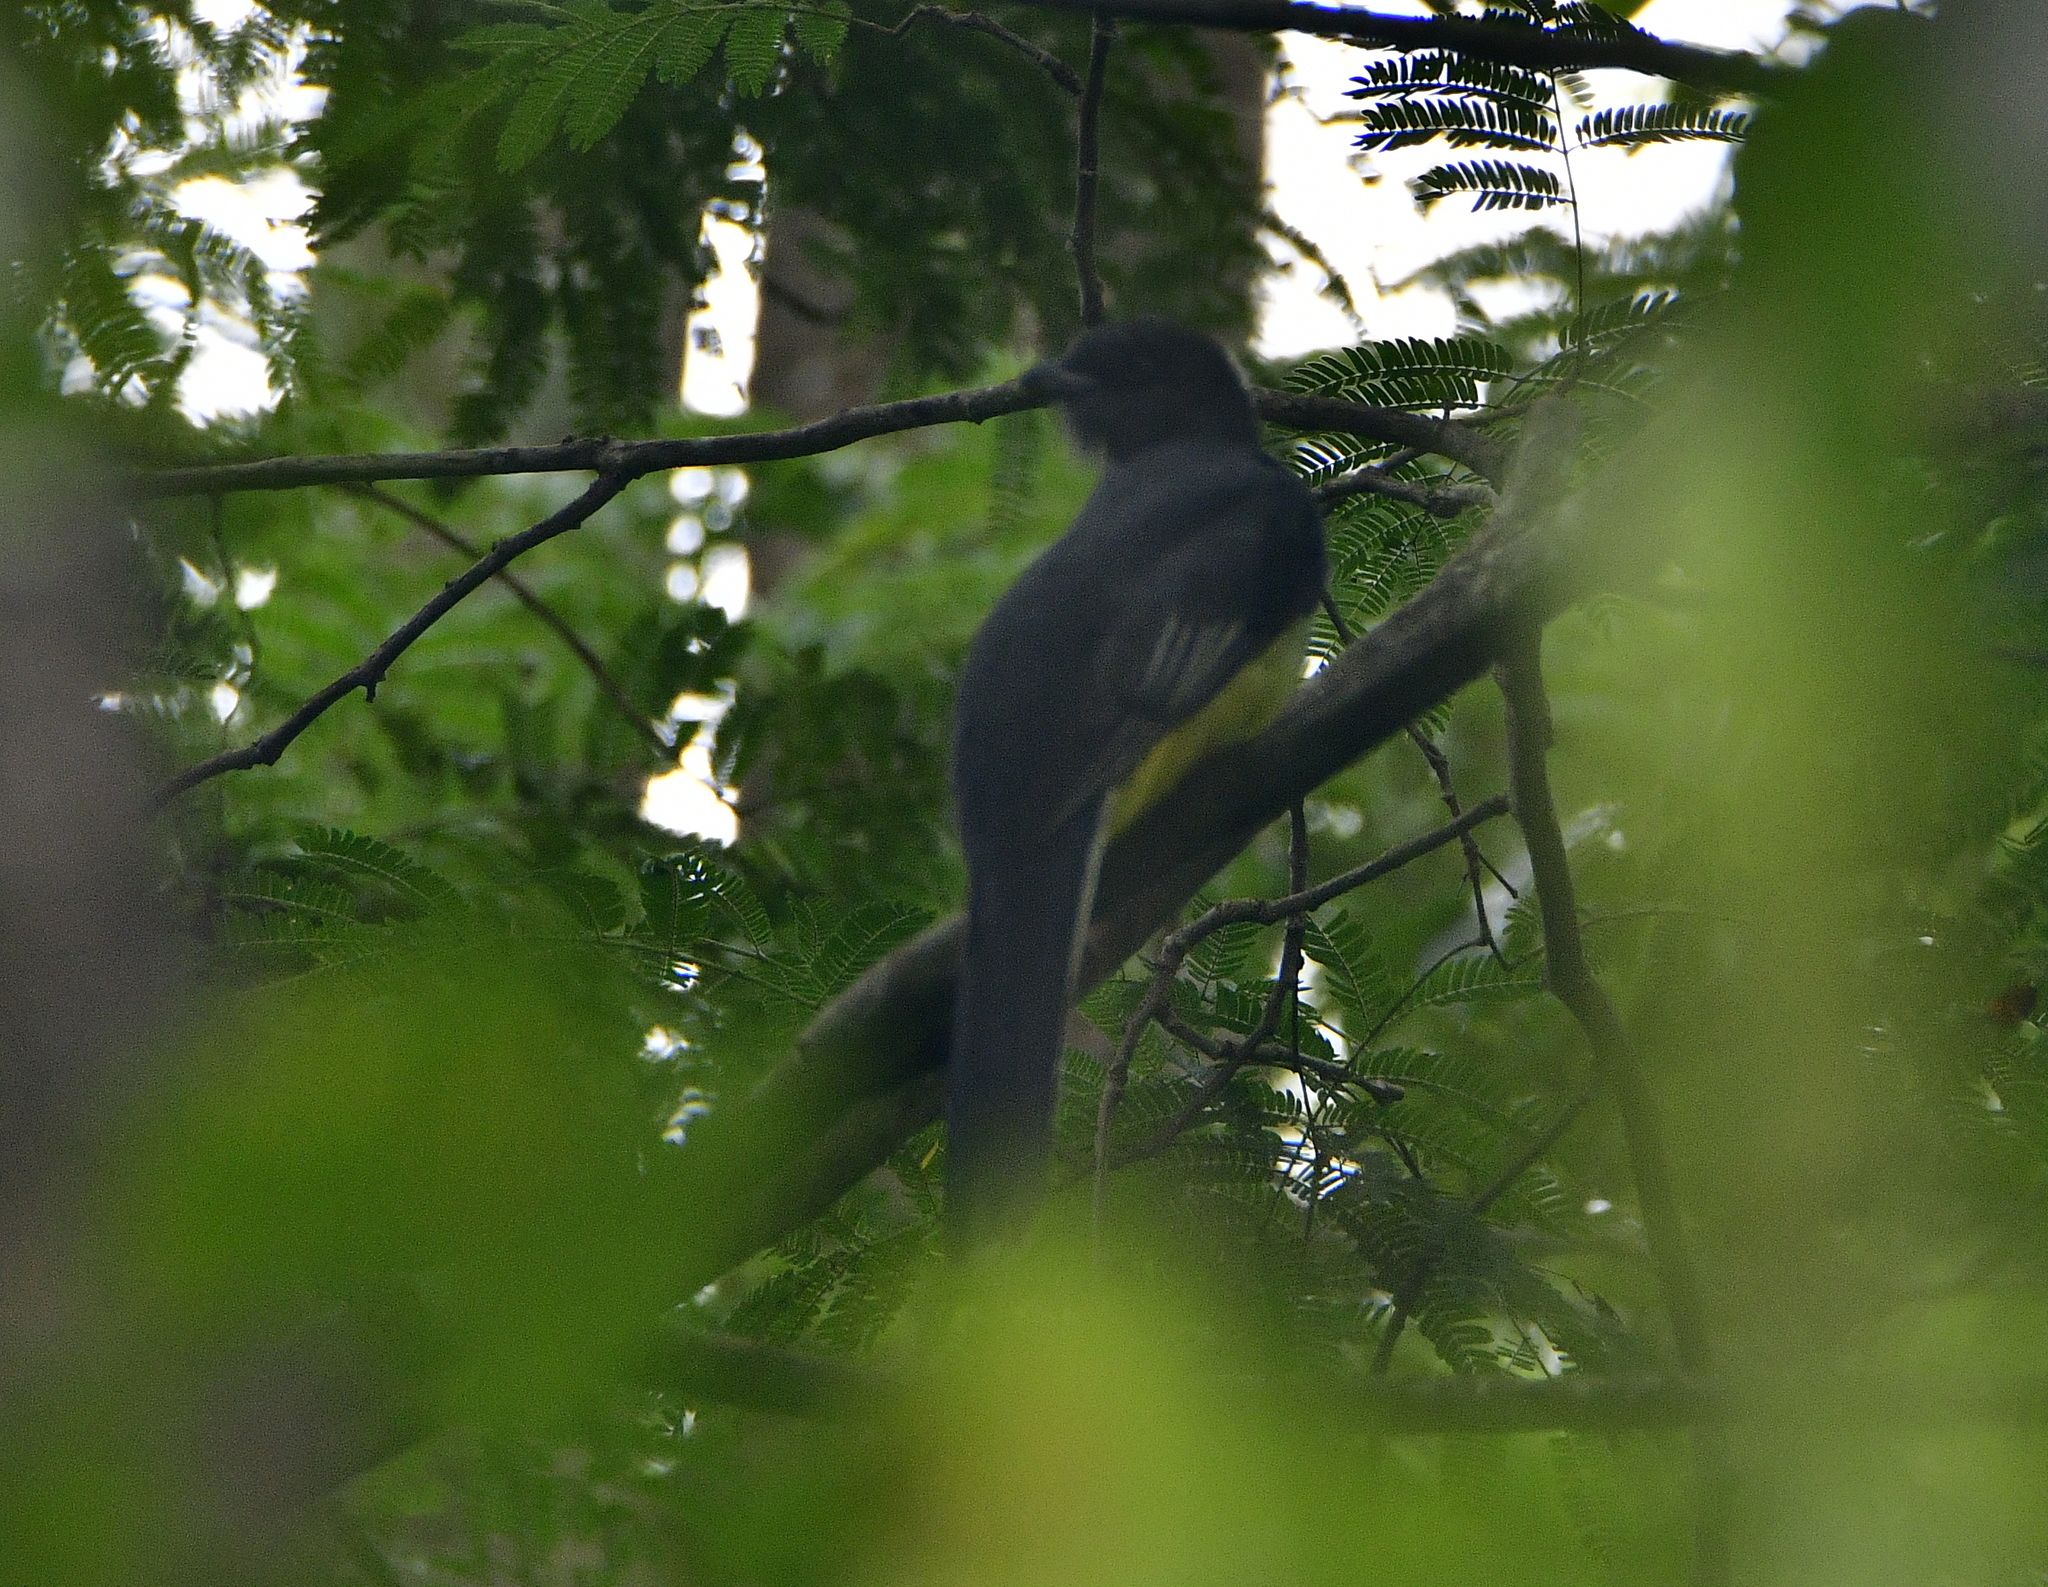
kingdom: Animalia
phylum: Chordata
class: Aves
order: Trogoniformes
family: Trogonidae
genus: Trogon
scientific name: Trogon citreolus
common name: Citreoline trogon
